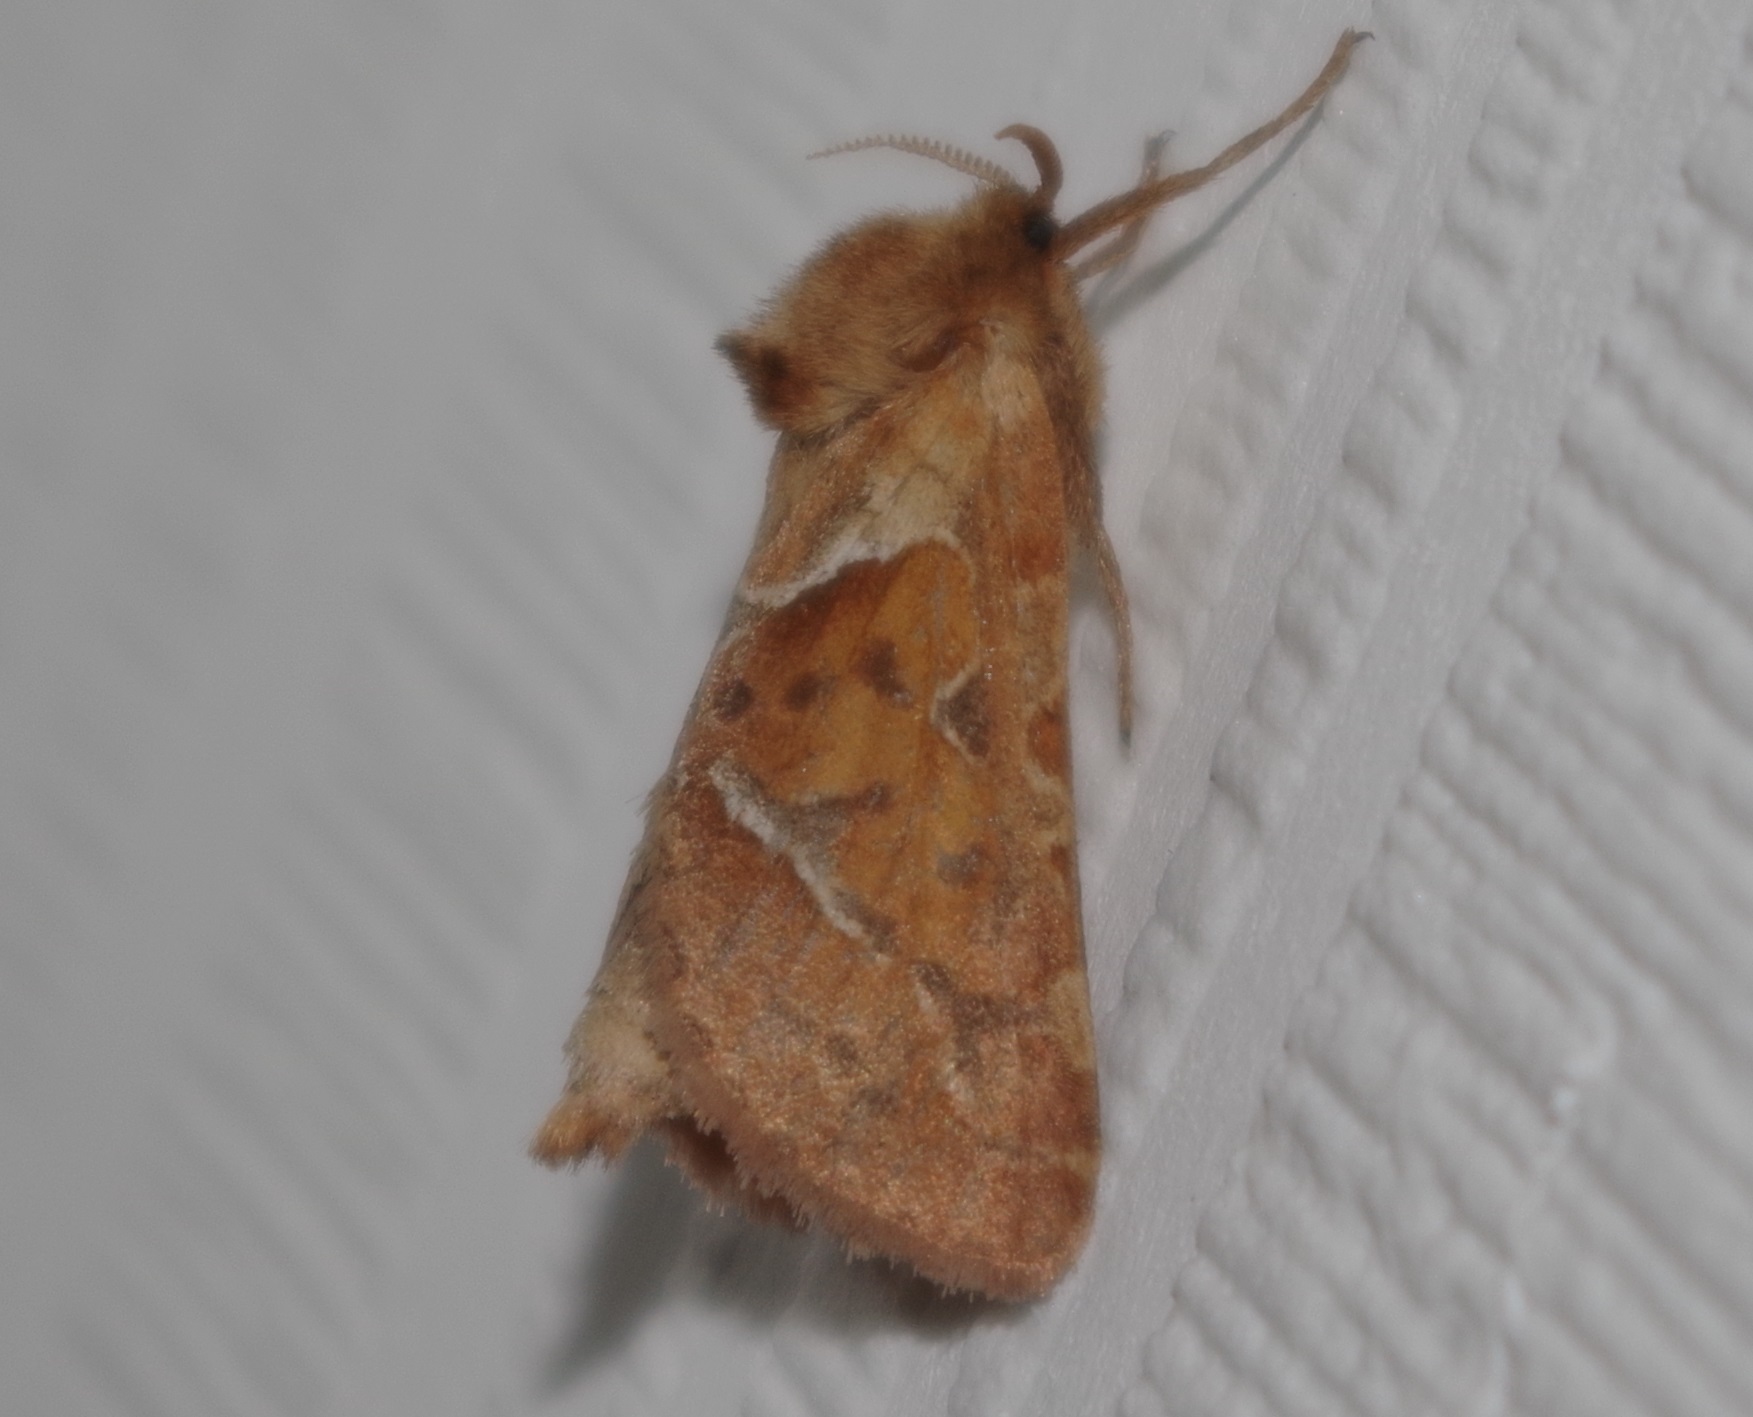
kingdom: Animalia
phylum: Arthropoda
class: Insecta
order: Lepidoptera
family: Hepialidae
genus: Triodia
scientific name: Triodia sylvina
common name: Orange swift
